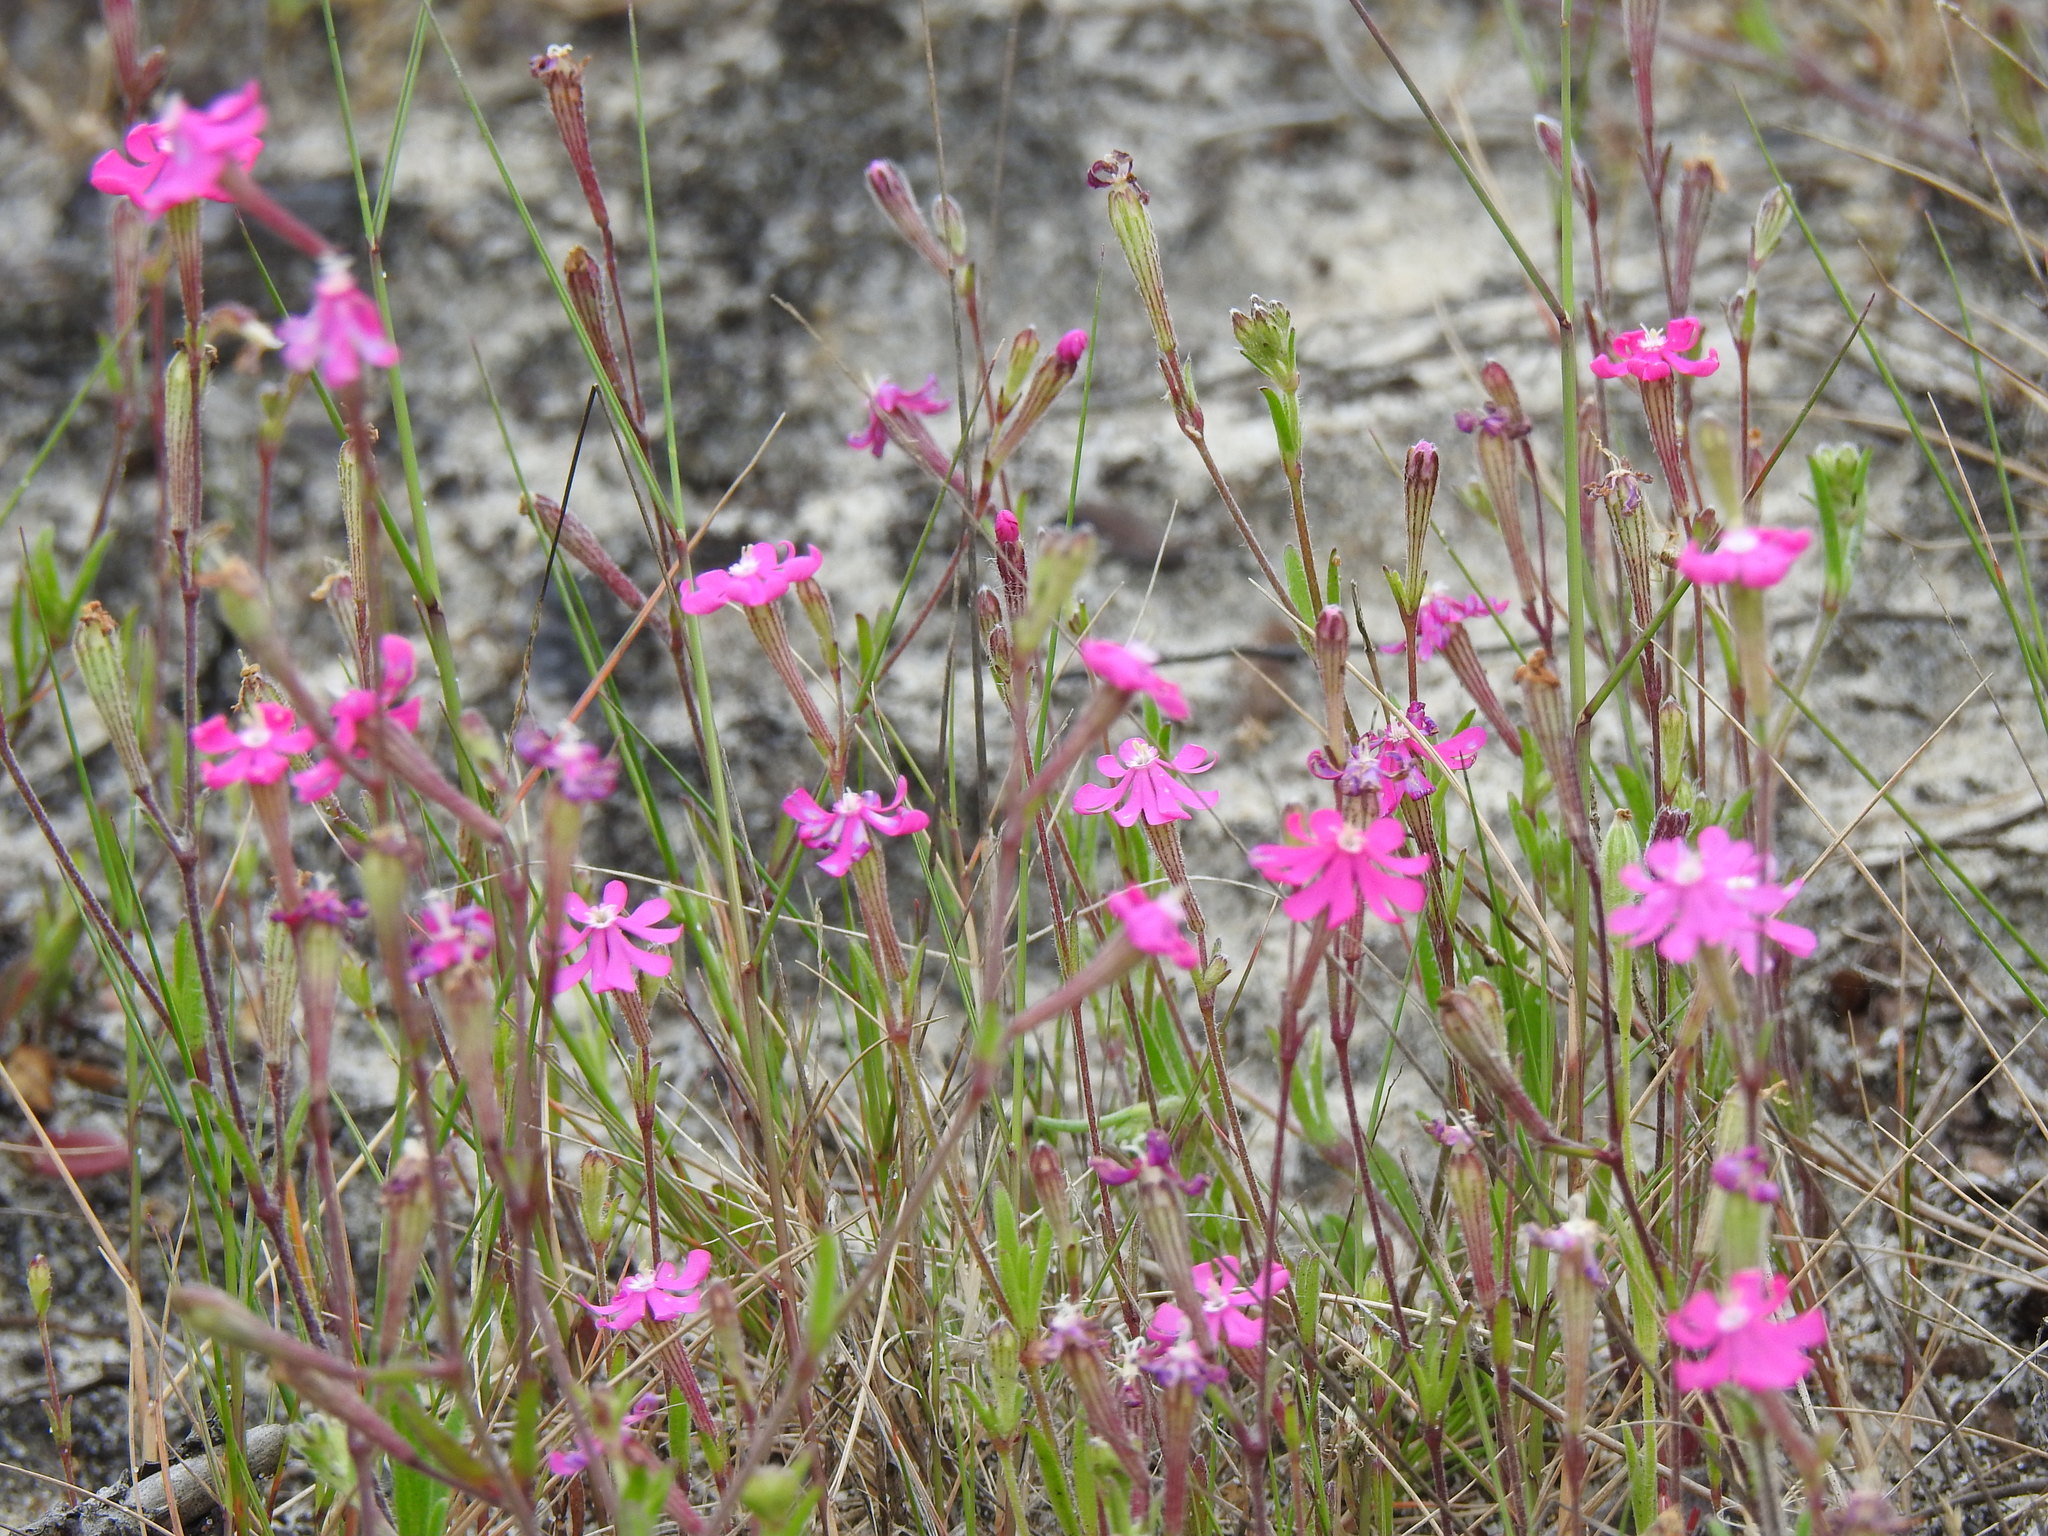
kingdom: Plantae
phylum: Tracheophyta
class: Magnoliopsida
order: Caryophyllales
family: Caryophyllaceae
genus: Silene
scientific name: Silene scabriflora
